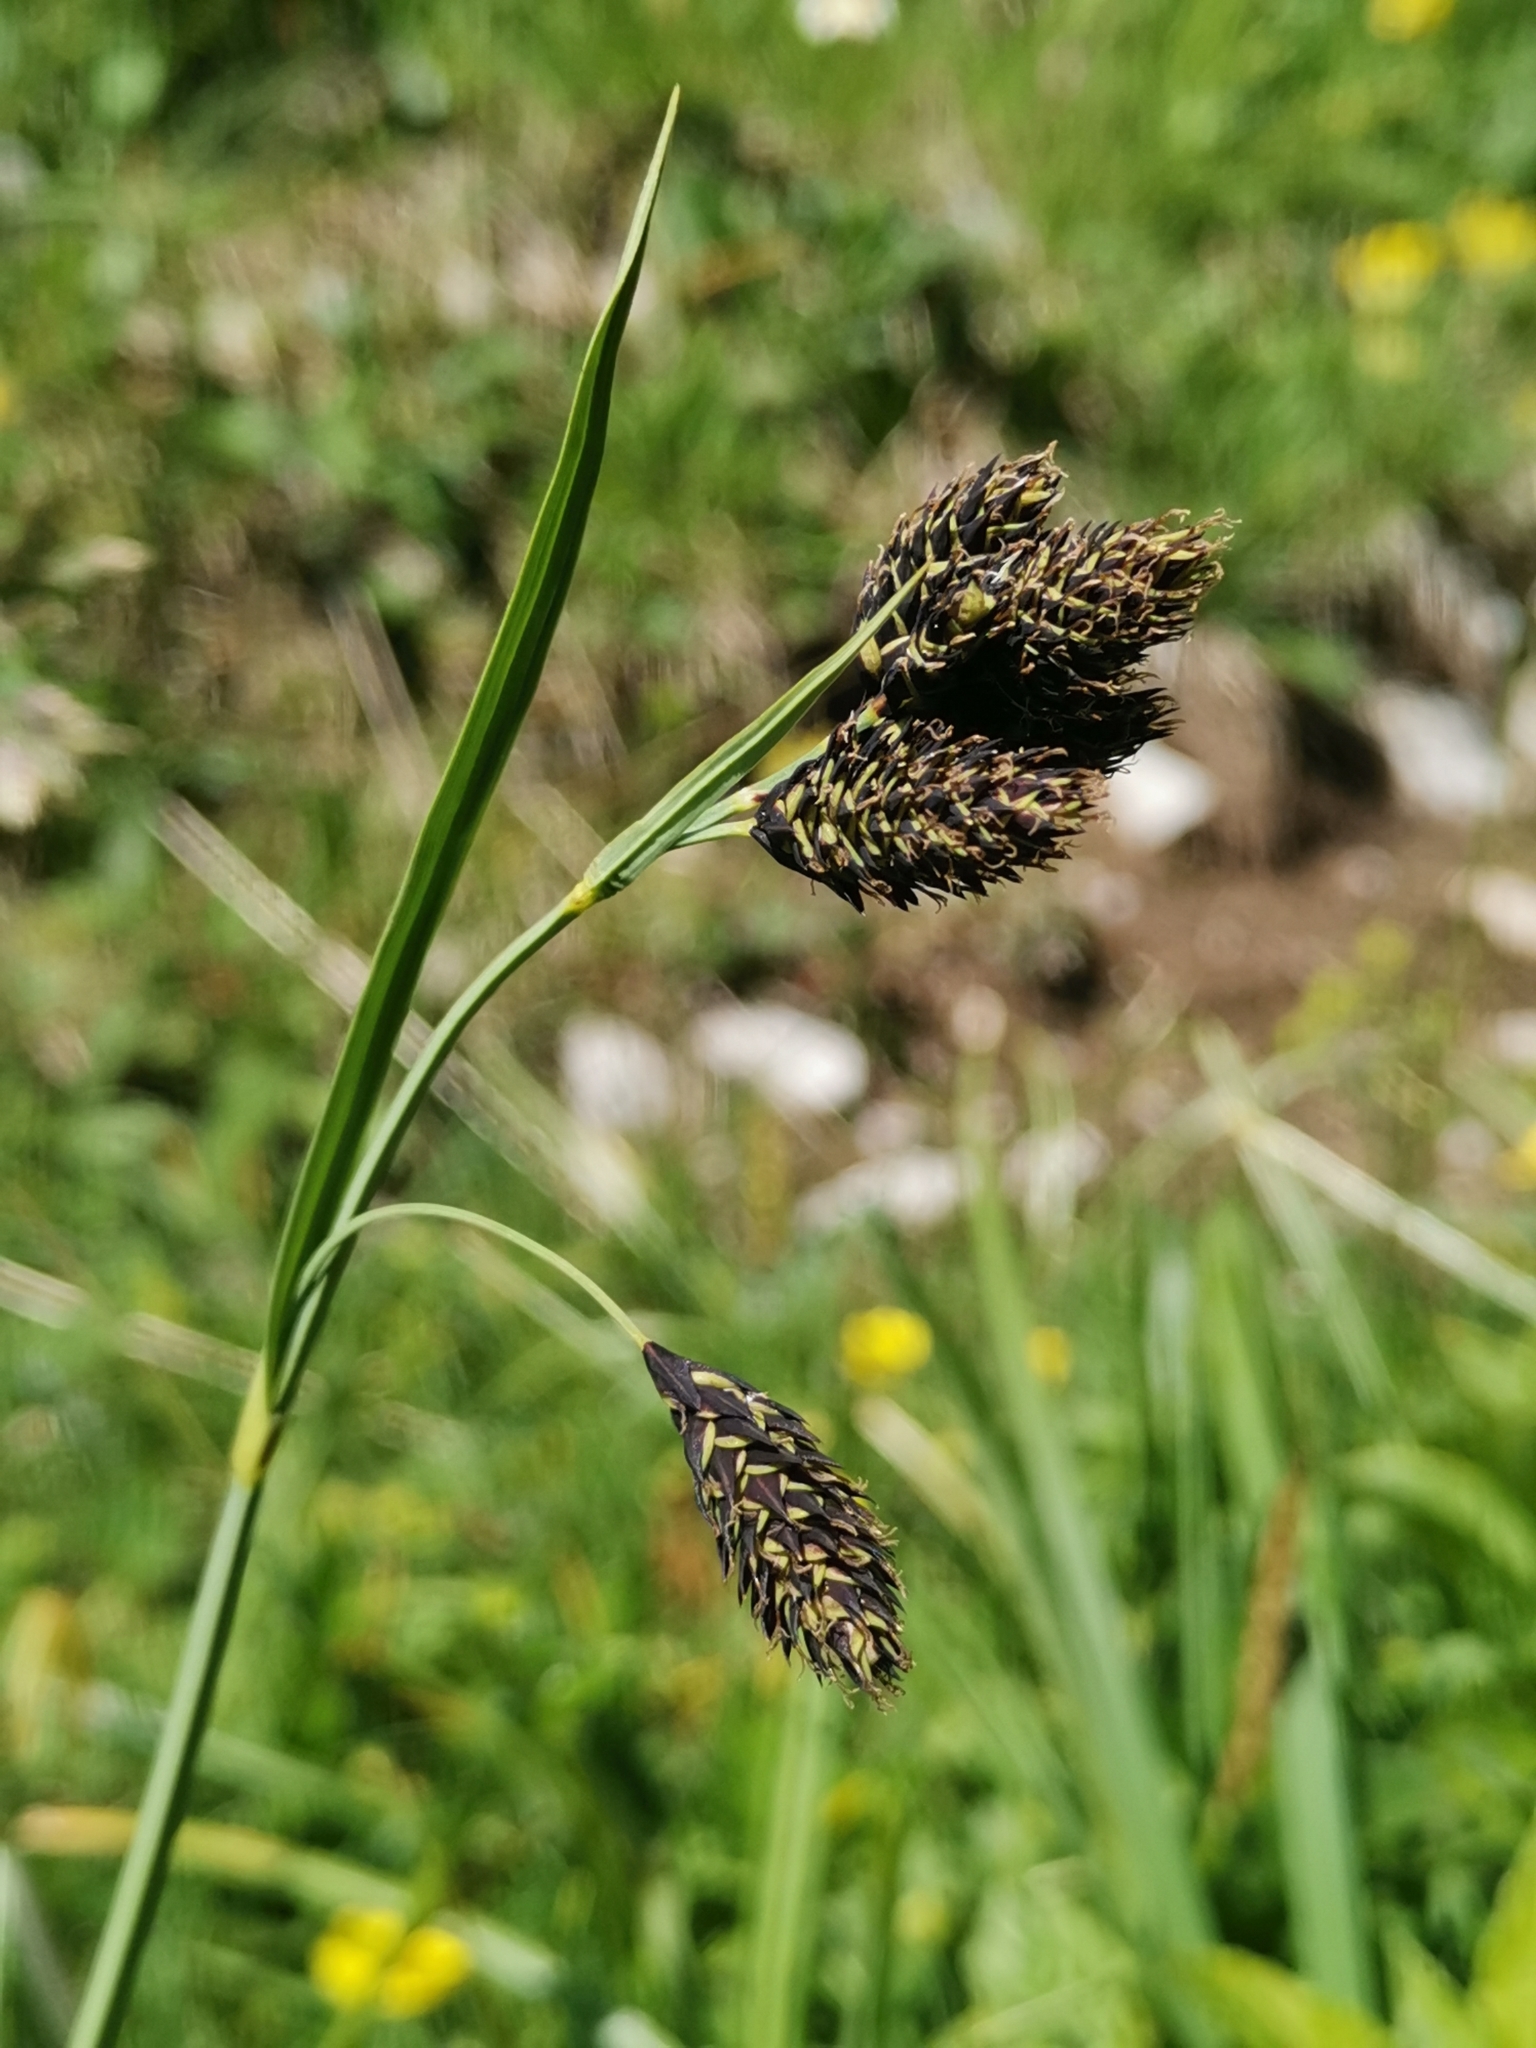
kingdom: Plantae
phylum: Tracheophyta
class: Liliopsida
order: Poales
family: Cyperaceae
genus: Carex
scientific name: Carex atrata
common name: Black alpine sedge
